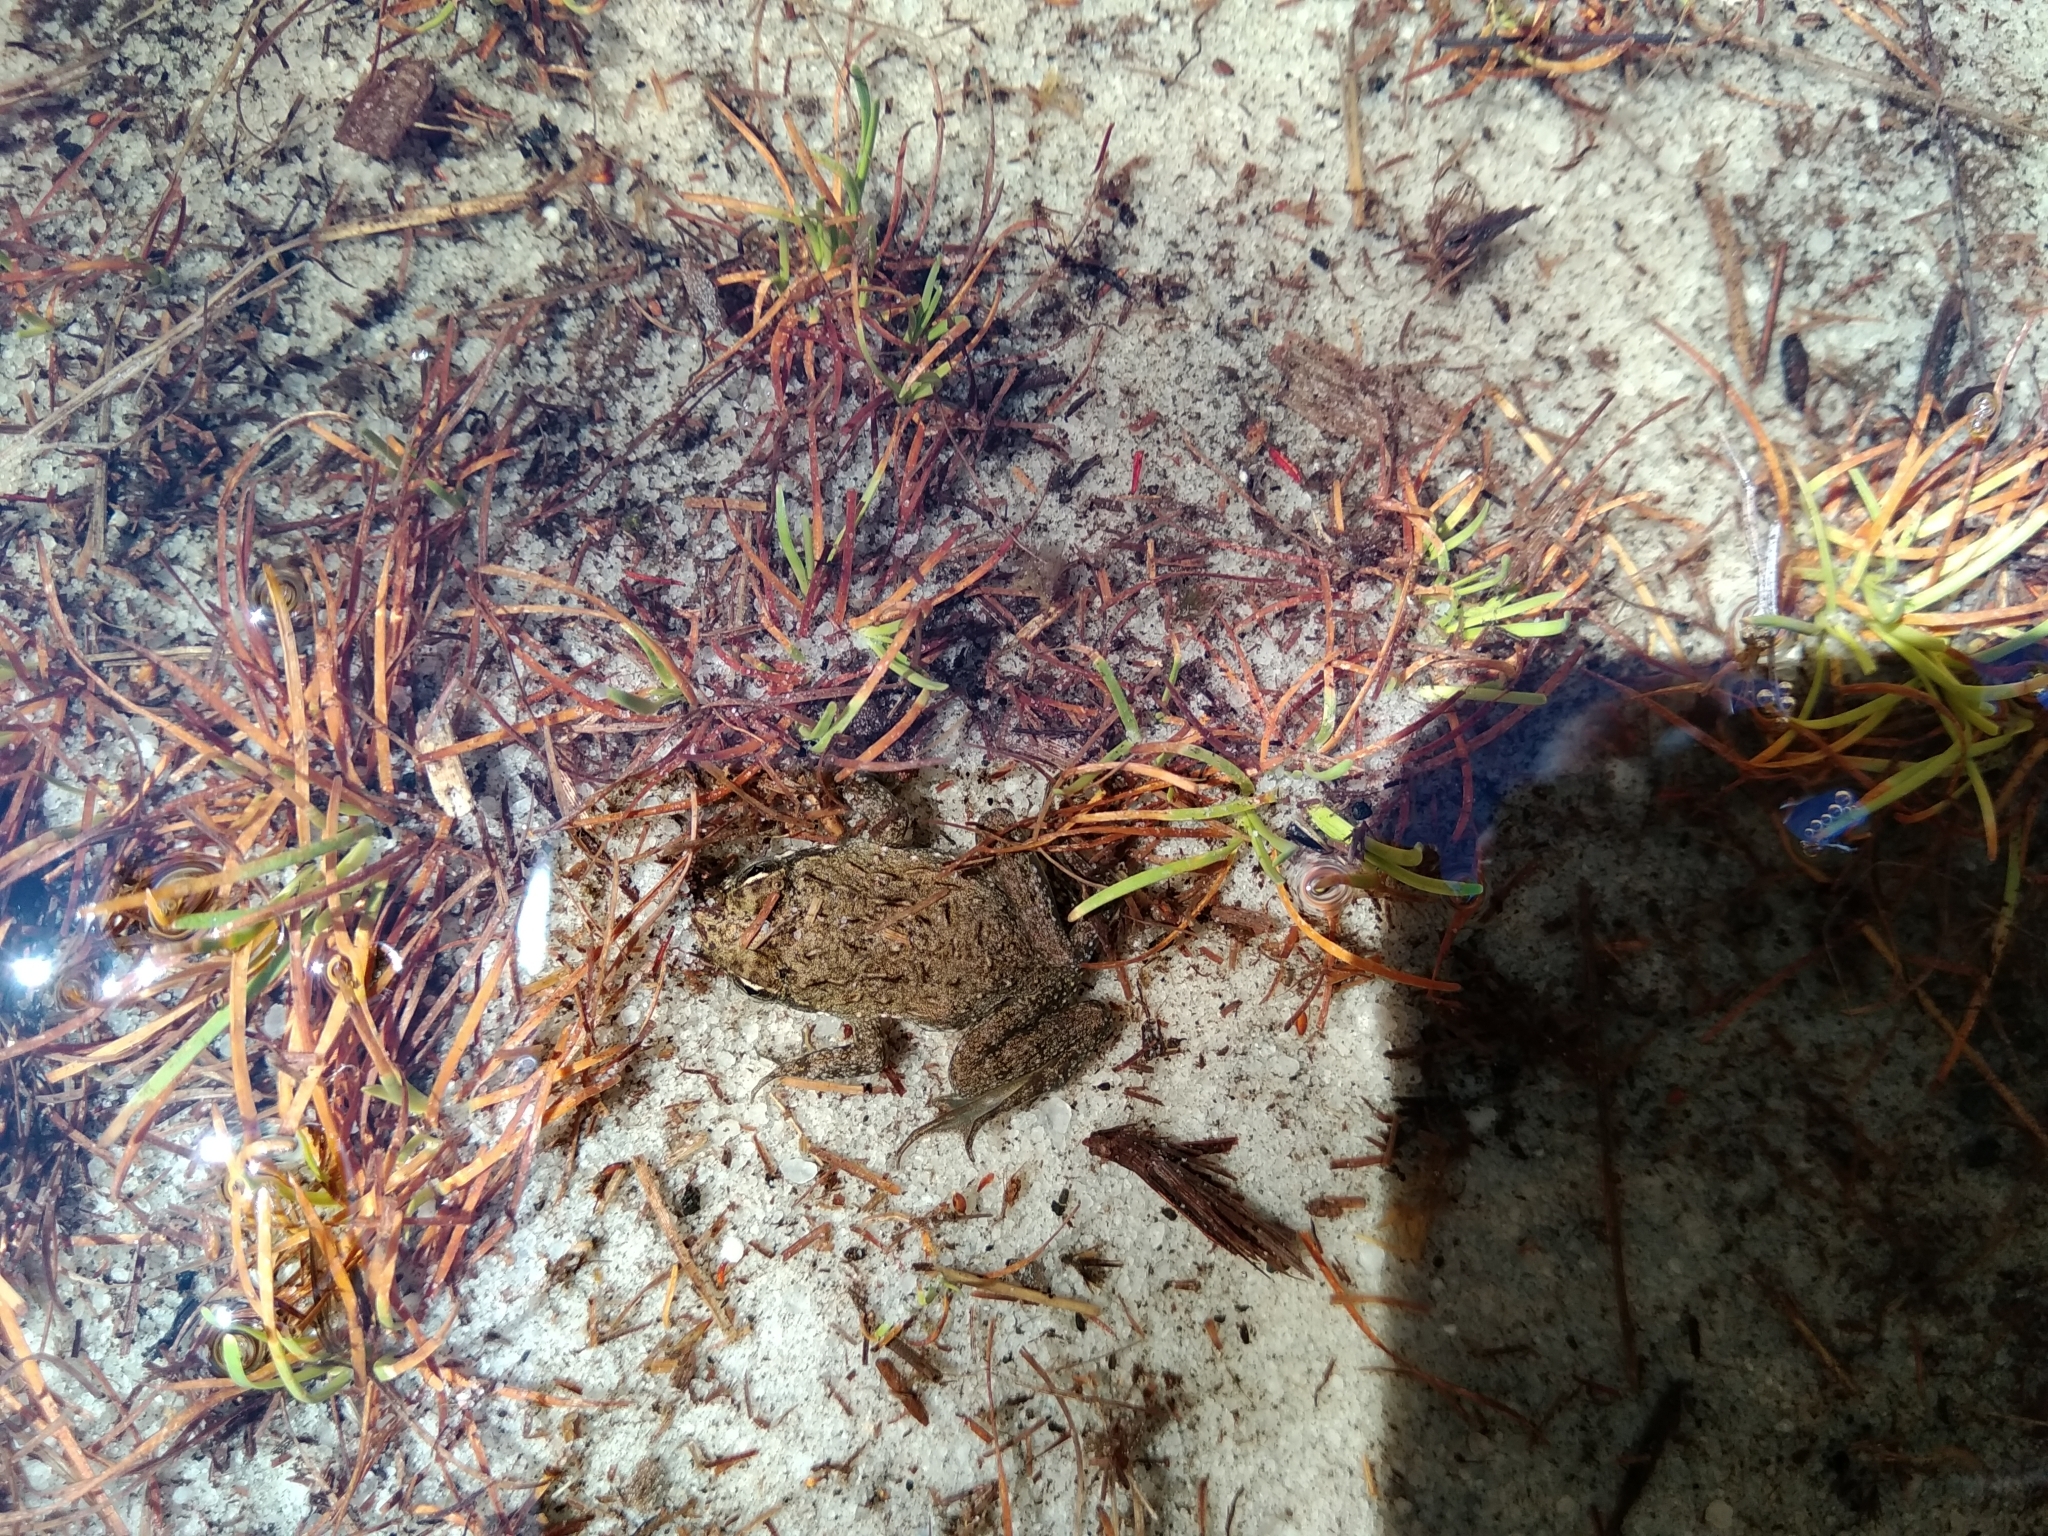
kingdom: Animalia
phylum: Chordata
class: Amphibia
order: Anura
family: Pyxicephalidae
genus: Amietia
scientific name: Amietia fuscigula
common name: Cape rana
